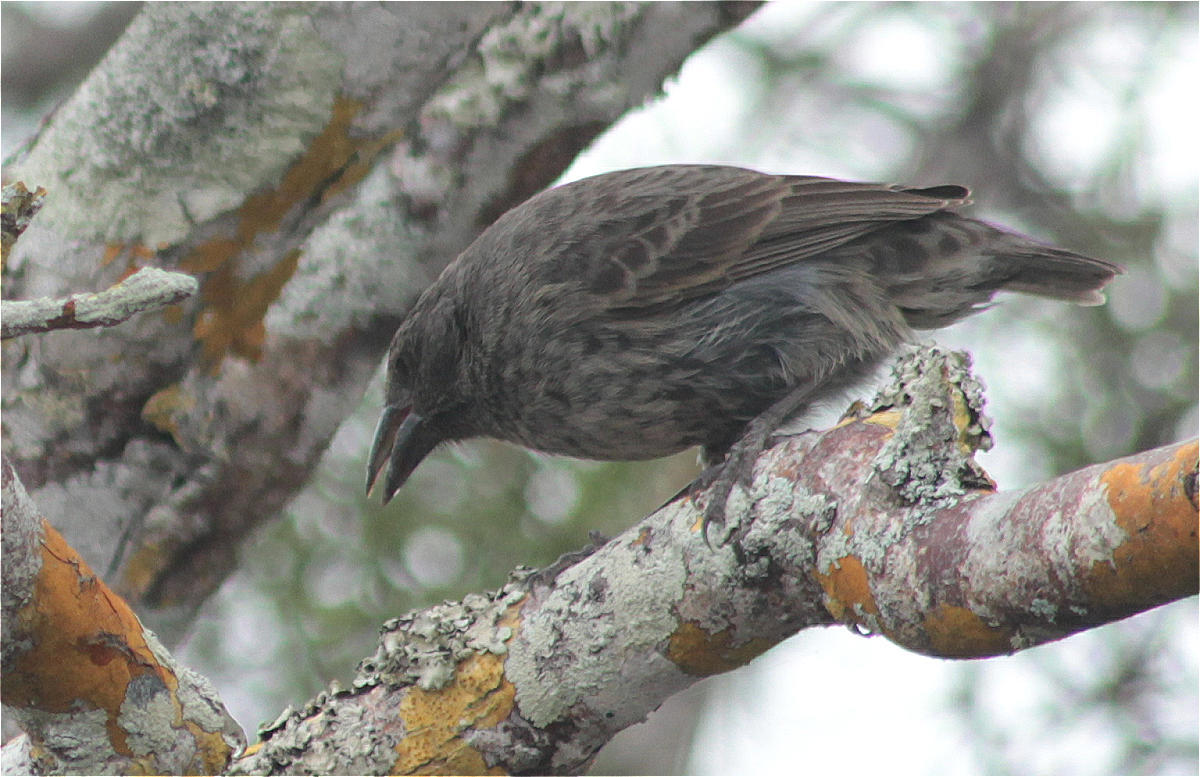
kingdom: Animalia
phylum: Chordata
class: Aves
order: Passeriformes
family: Thraupidae
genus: Geospiza
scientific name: Geospiza scandens
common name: Common cactus-finch
